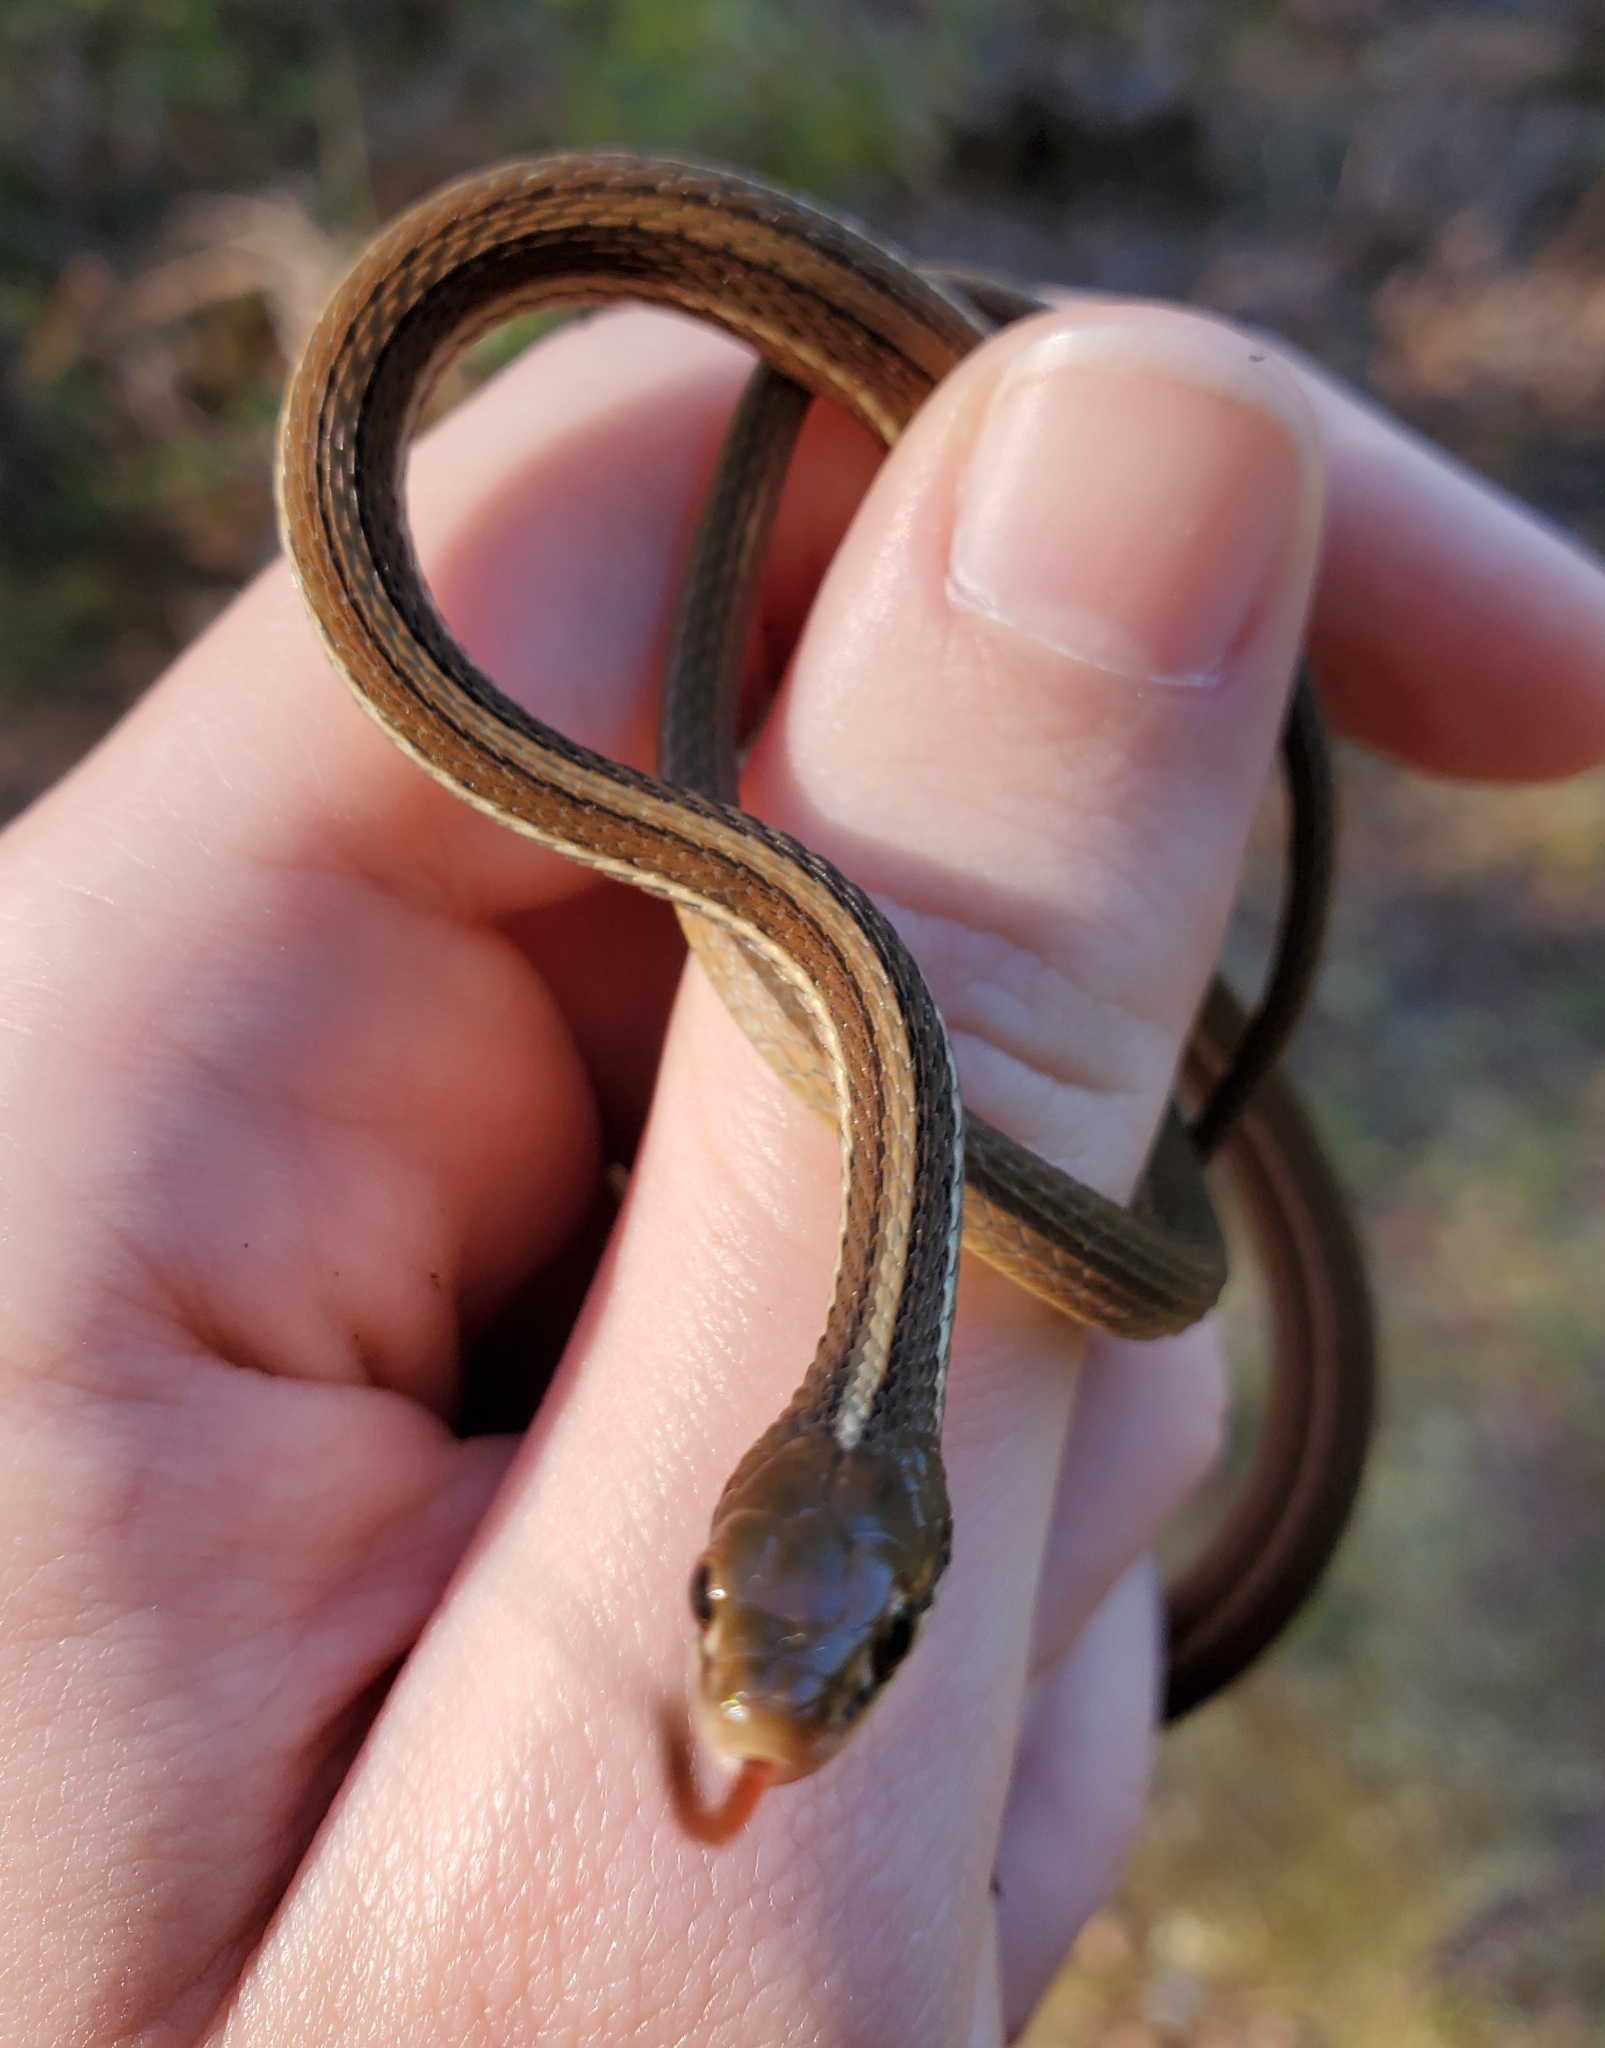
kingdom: Animalia
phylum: Chordata
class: Squamata
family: Colubridae
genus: Thamnophis
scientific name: Thamnophis saurita
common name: Eastern ribbonsnake
